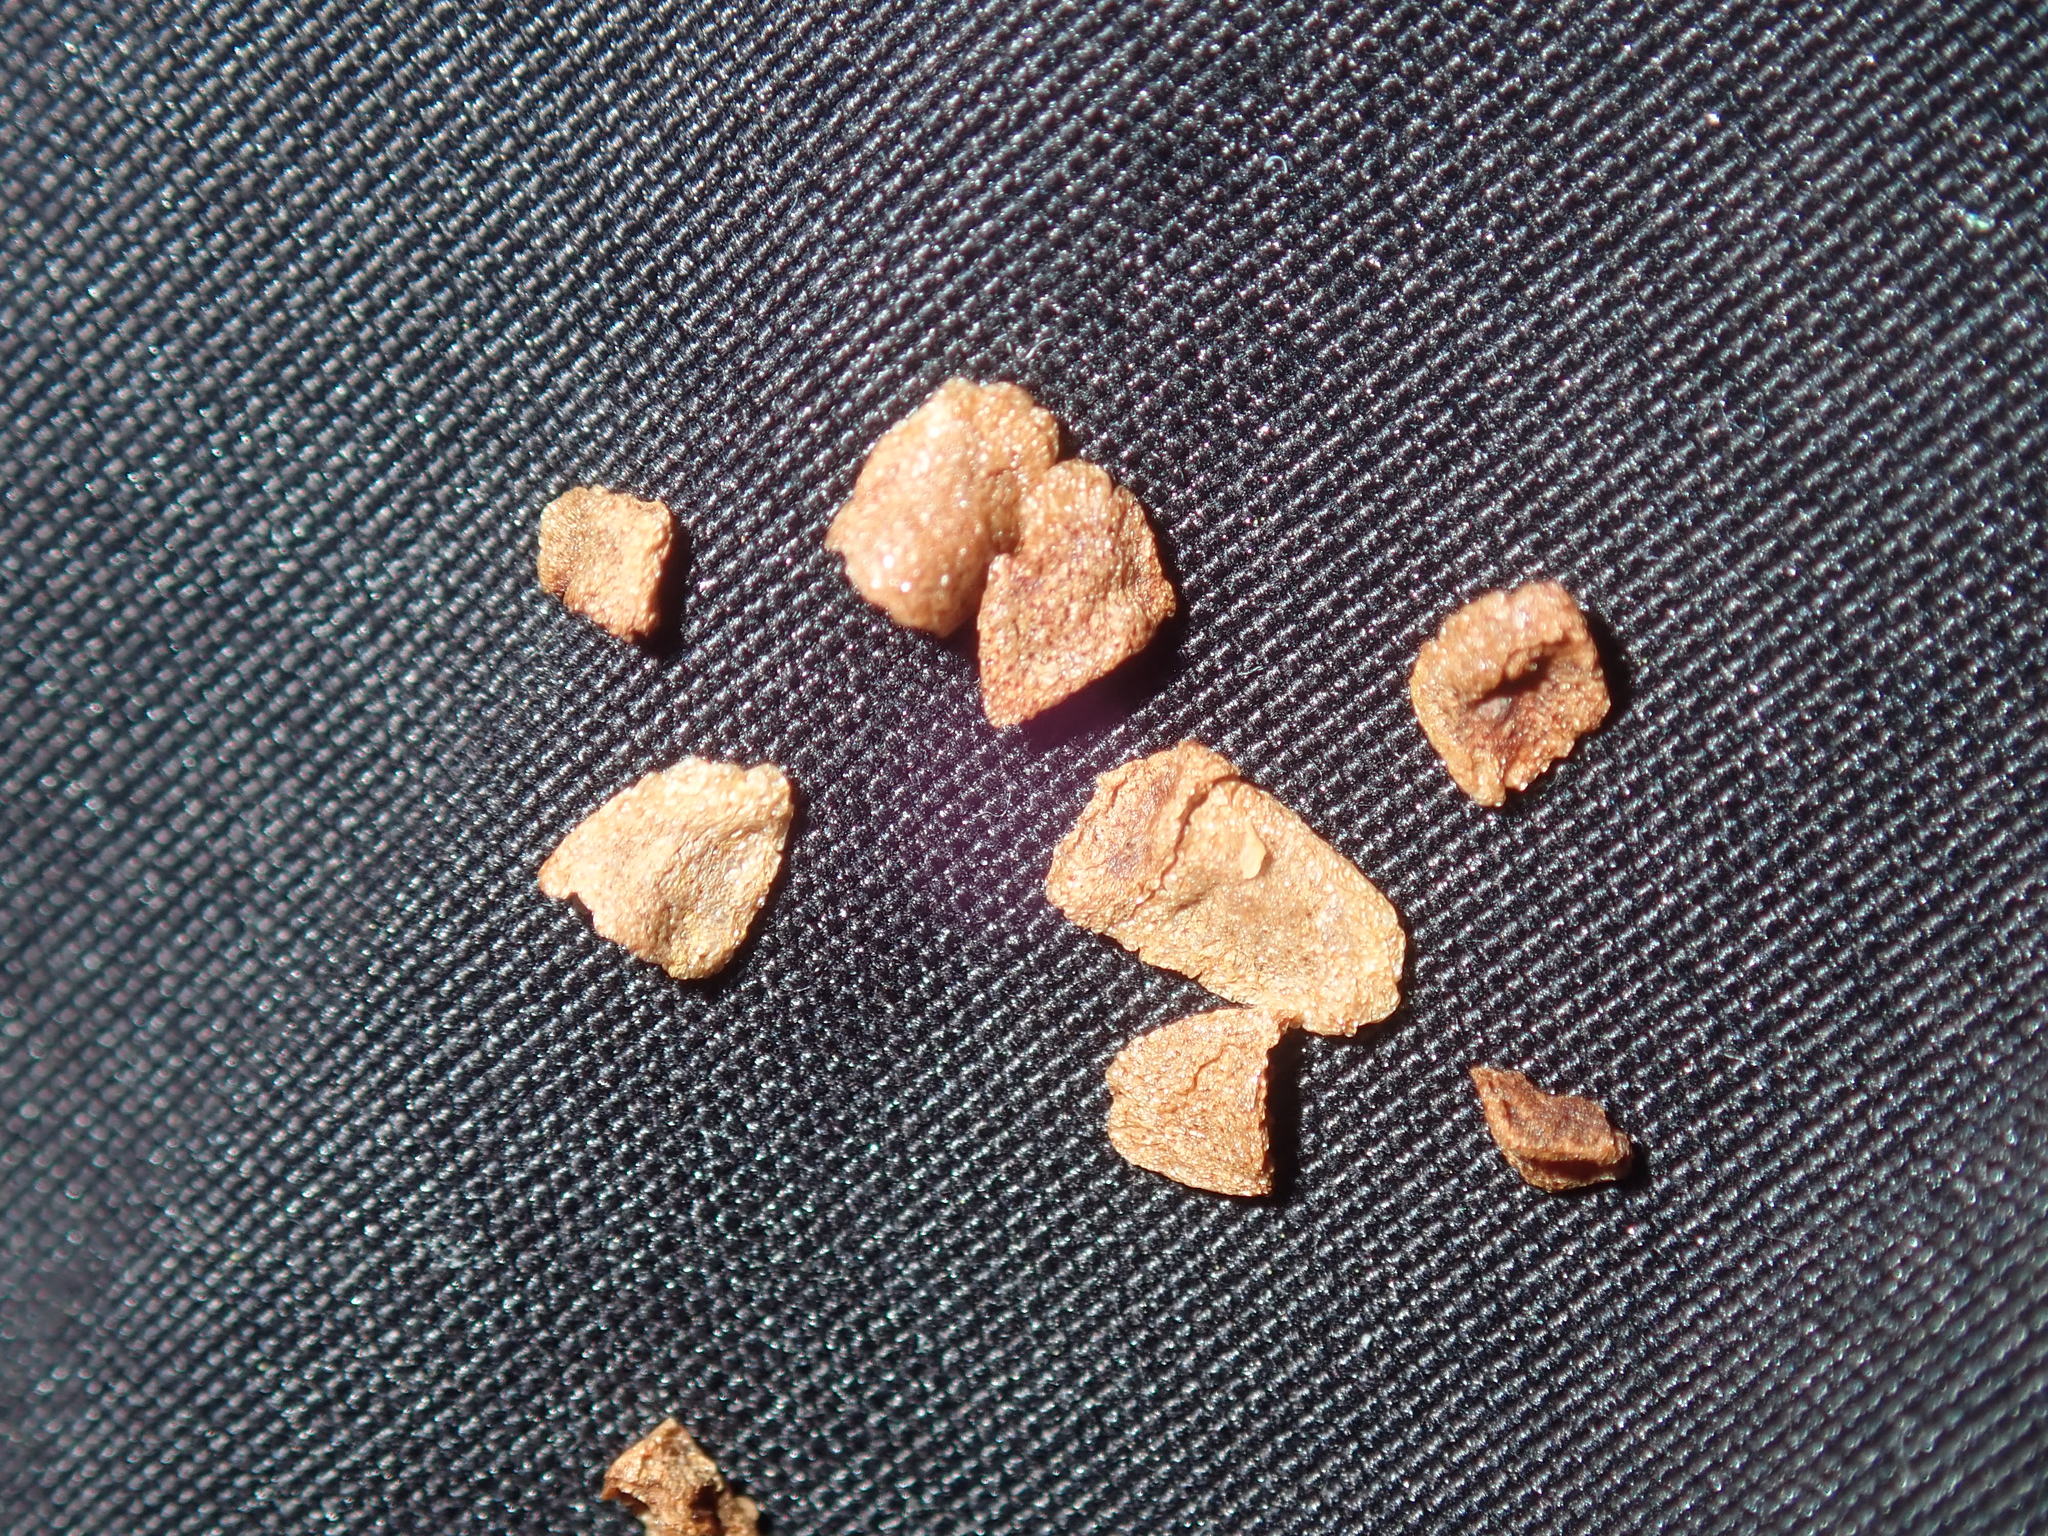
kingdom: Plantae
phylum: Tracheophyta
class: Liliopsida
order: Liliales
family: Colchicaceae
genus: Burchardia
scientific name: Burchardia umbellata
